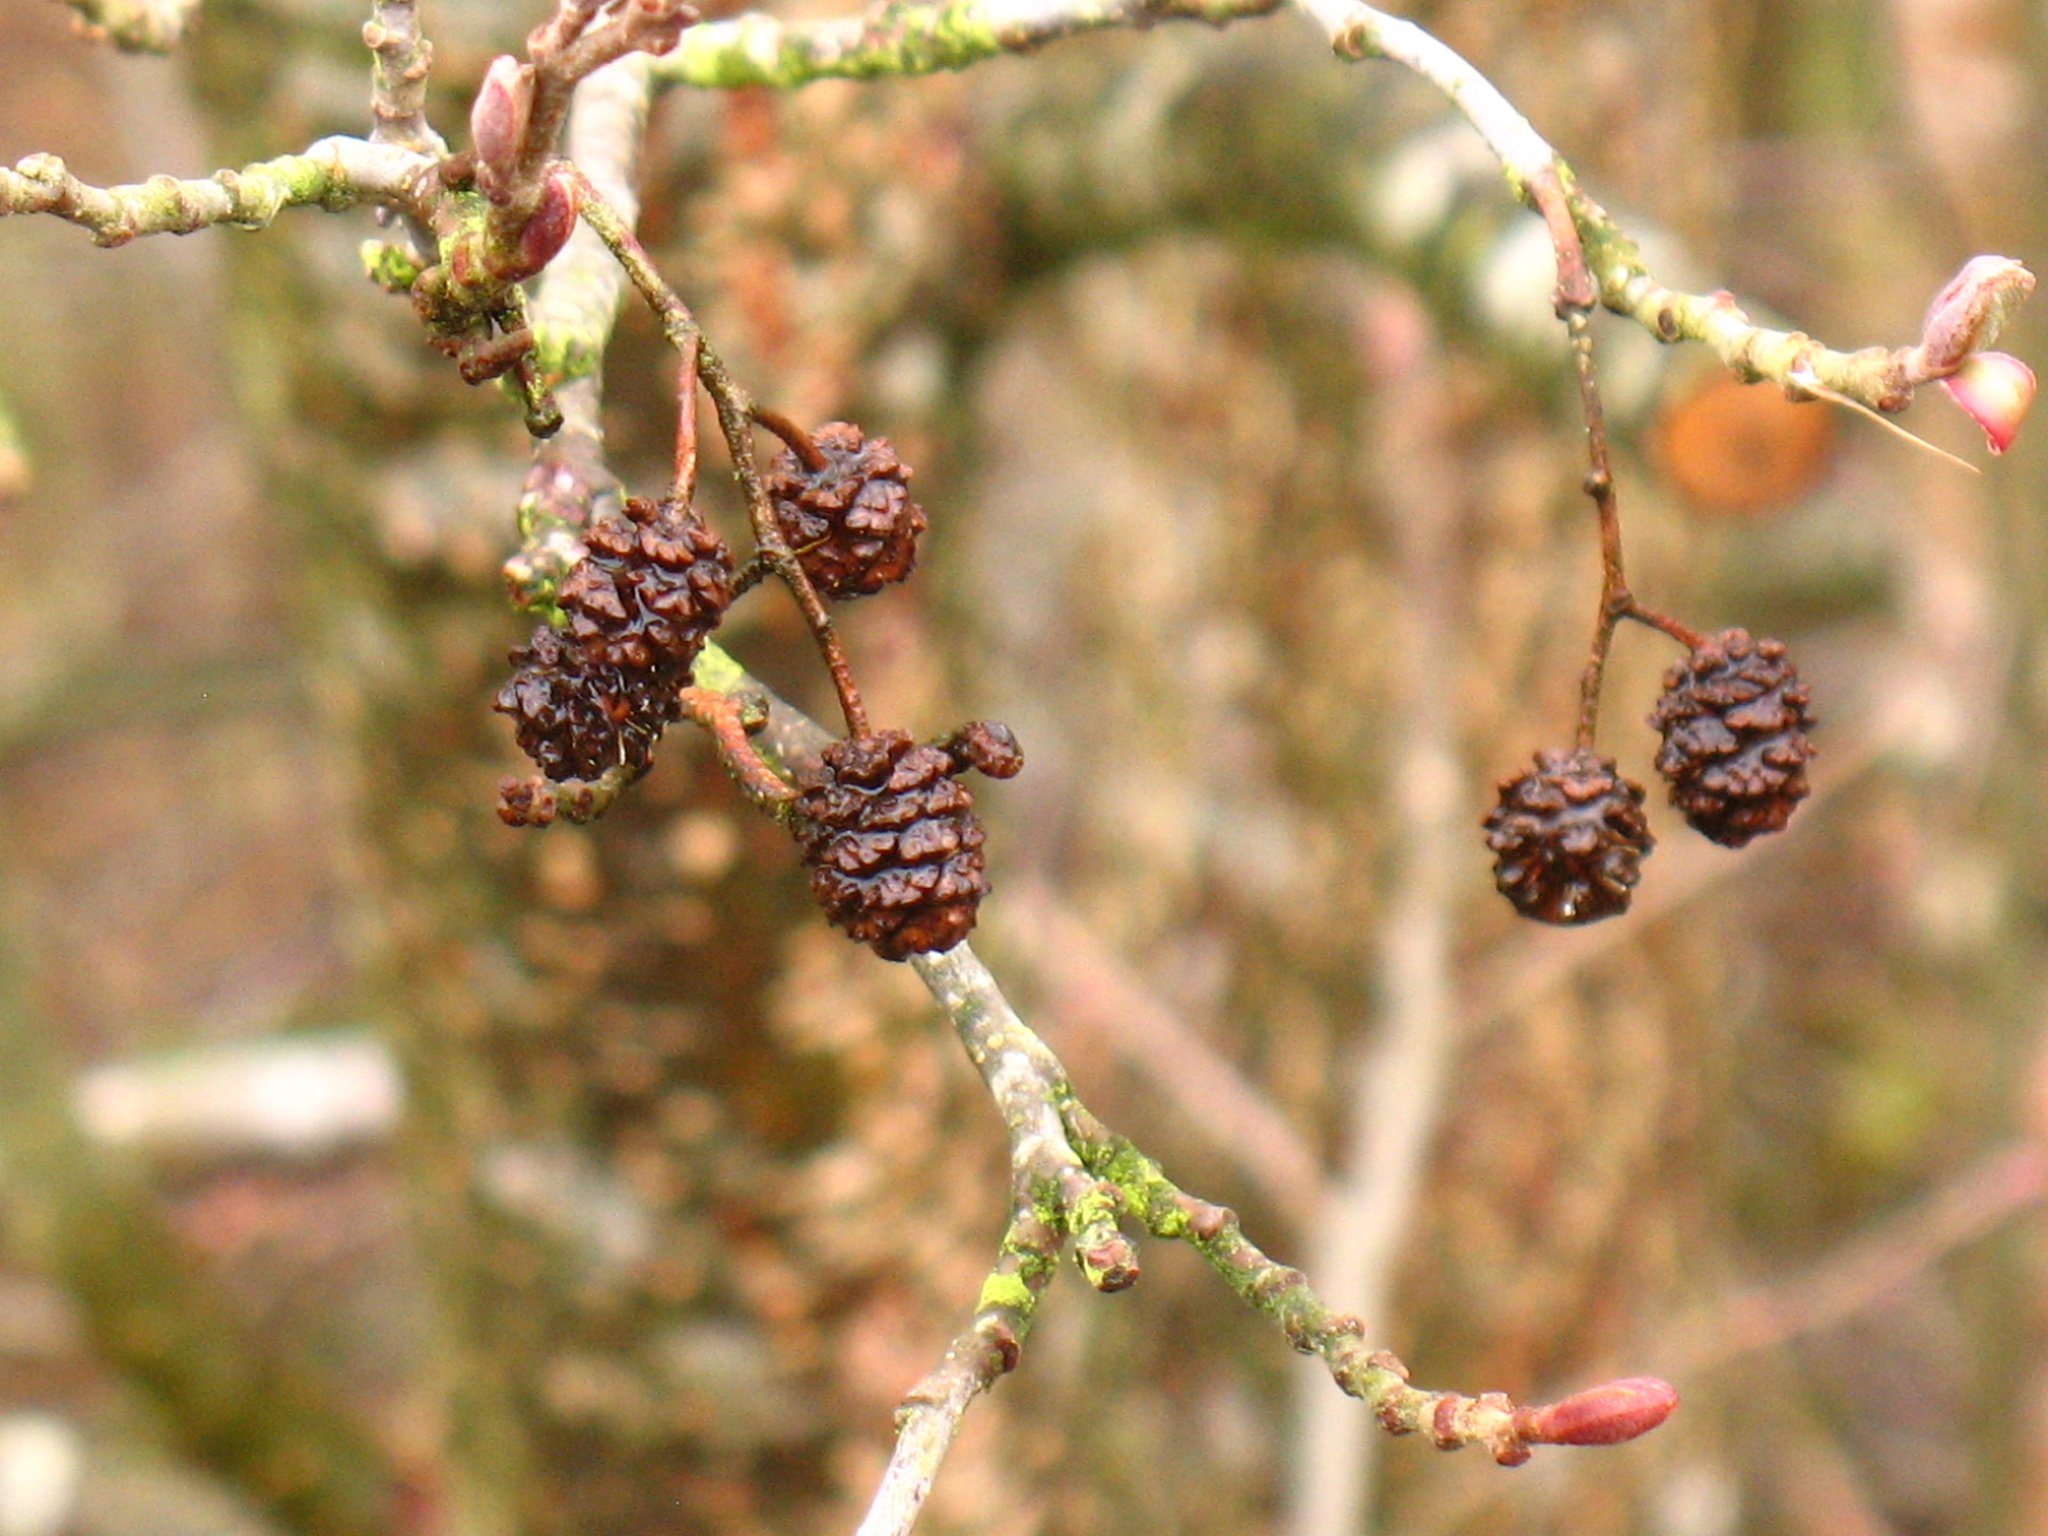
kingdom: Plantae
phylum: Tracheophyta
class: Magnoliopsida
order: Fagales
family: Betulaceae
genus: Alnus
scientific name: Alnus glutinosa
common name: Black alder
